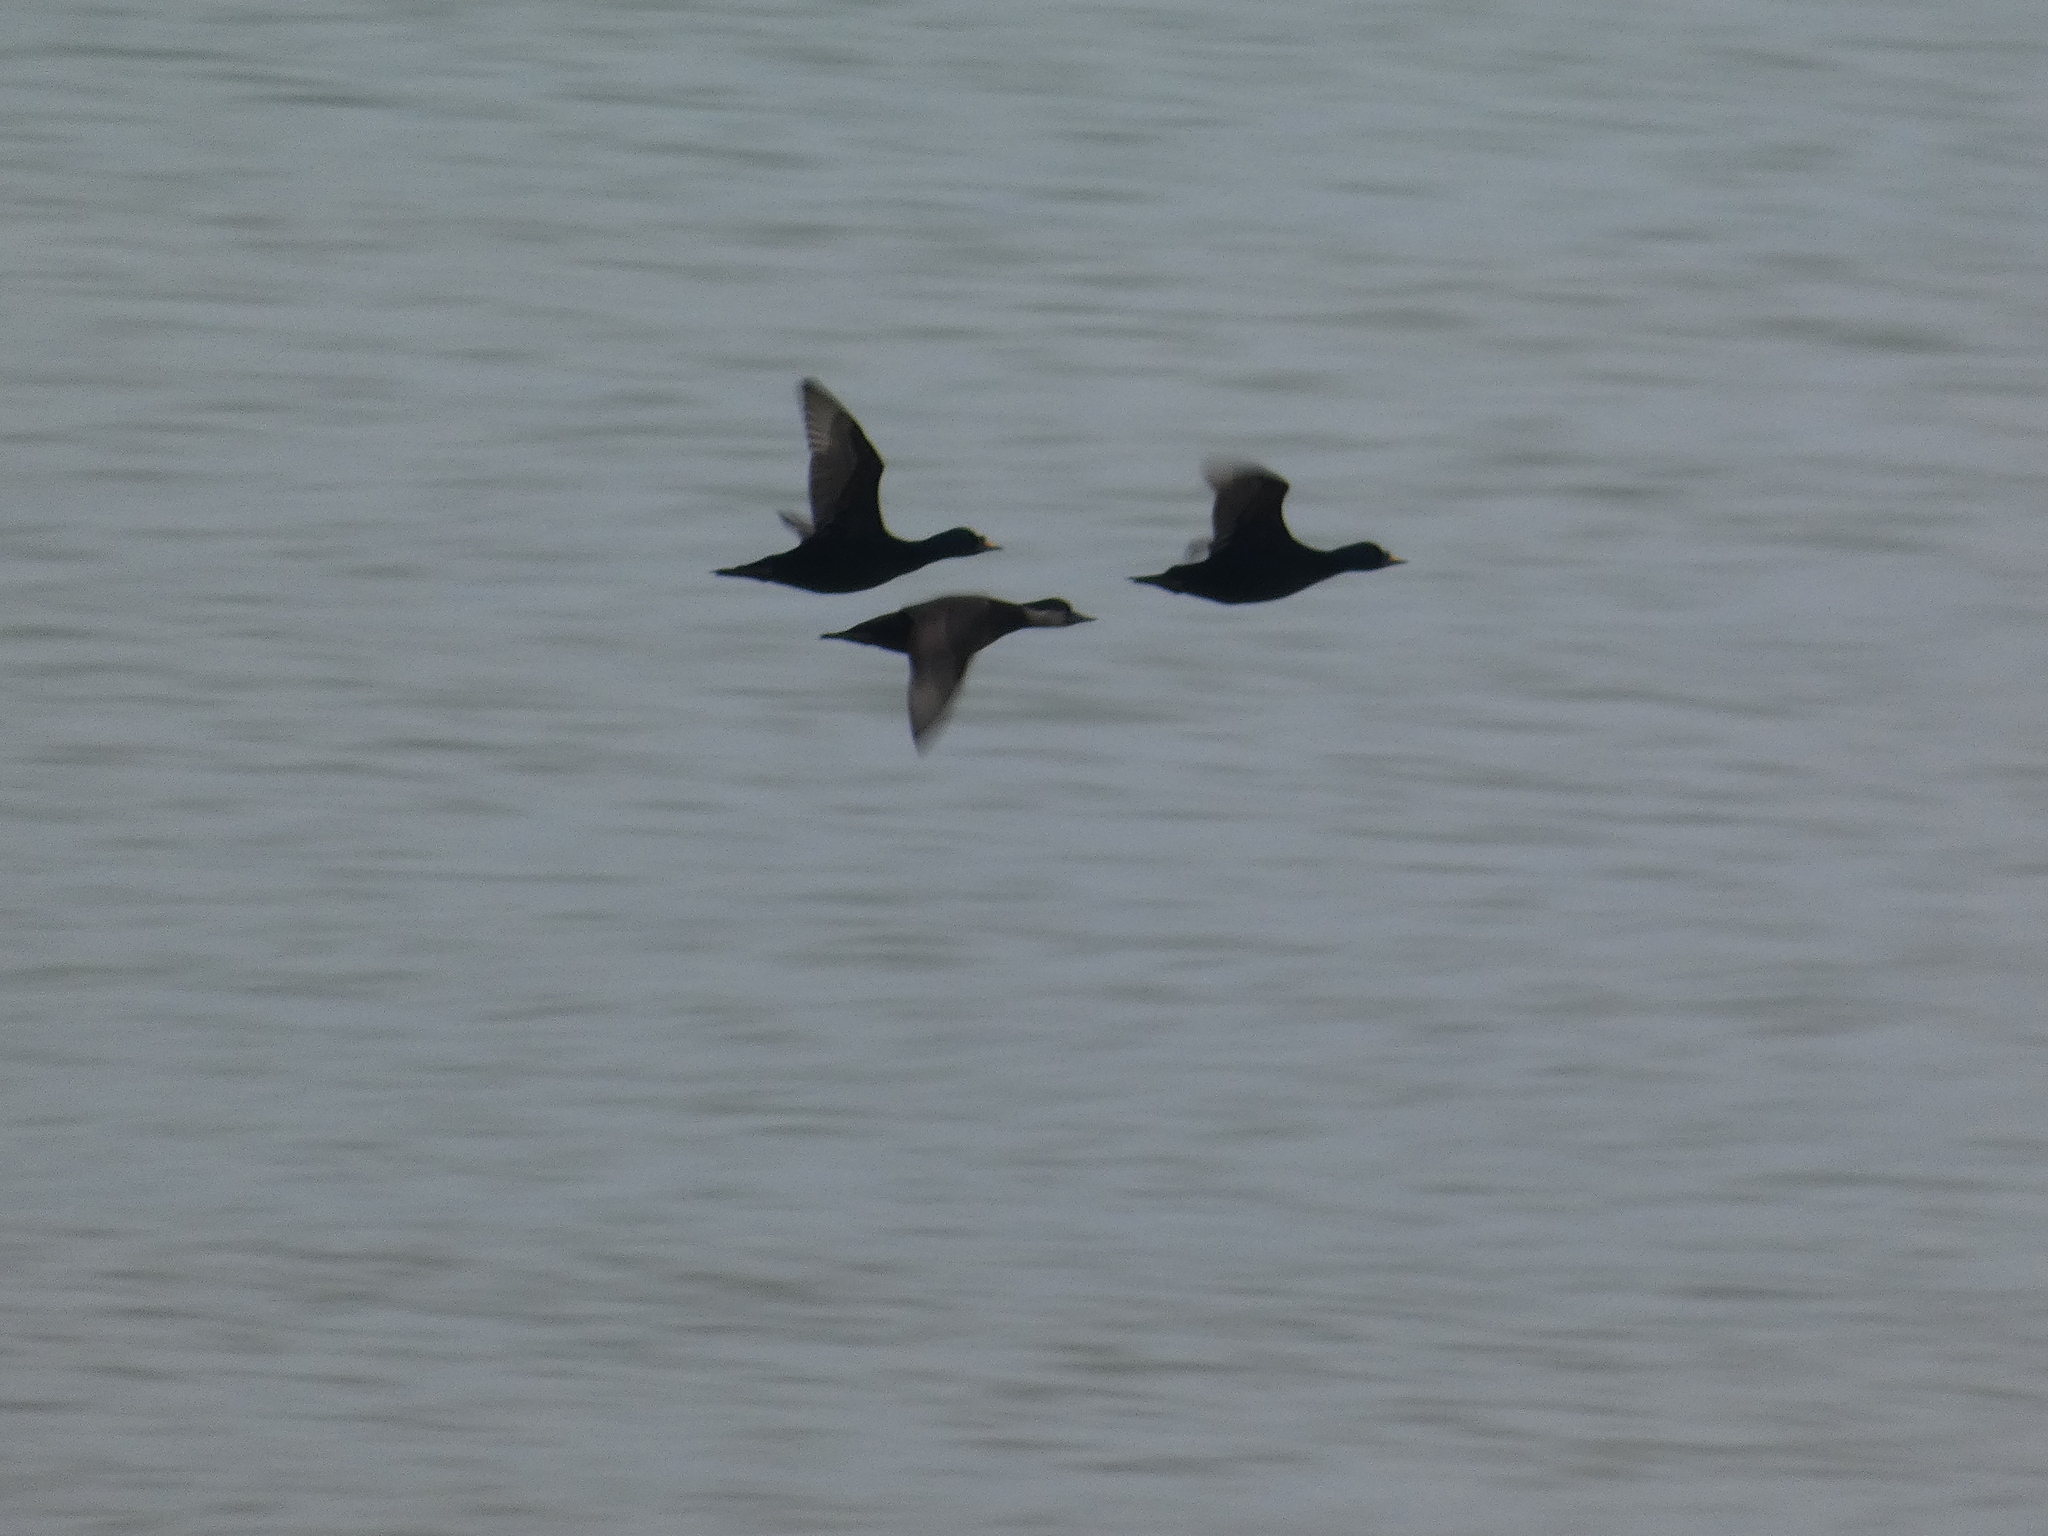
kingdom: Animalia
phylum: Chordata
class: Aves
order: Anseriformes
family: Anatidae
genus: Melanitta
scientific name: Melanitta nigra
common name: Common scoter
